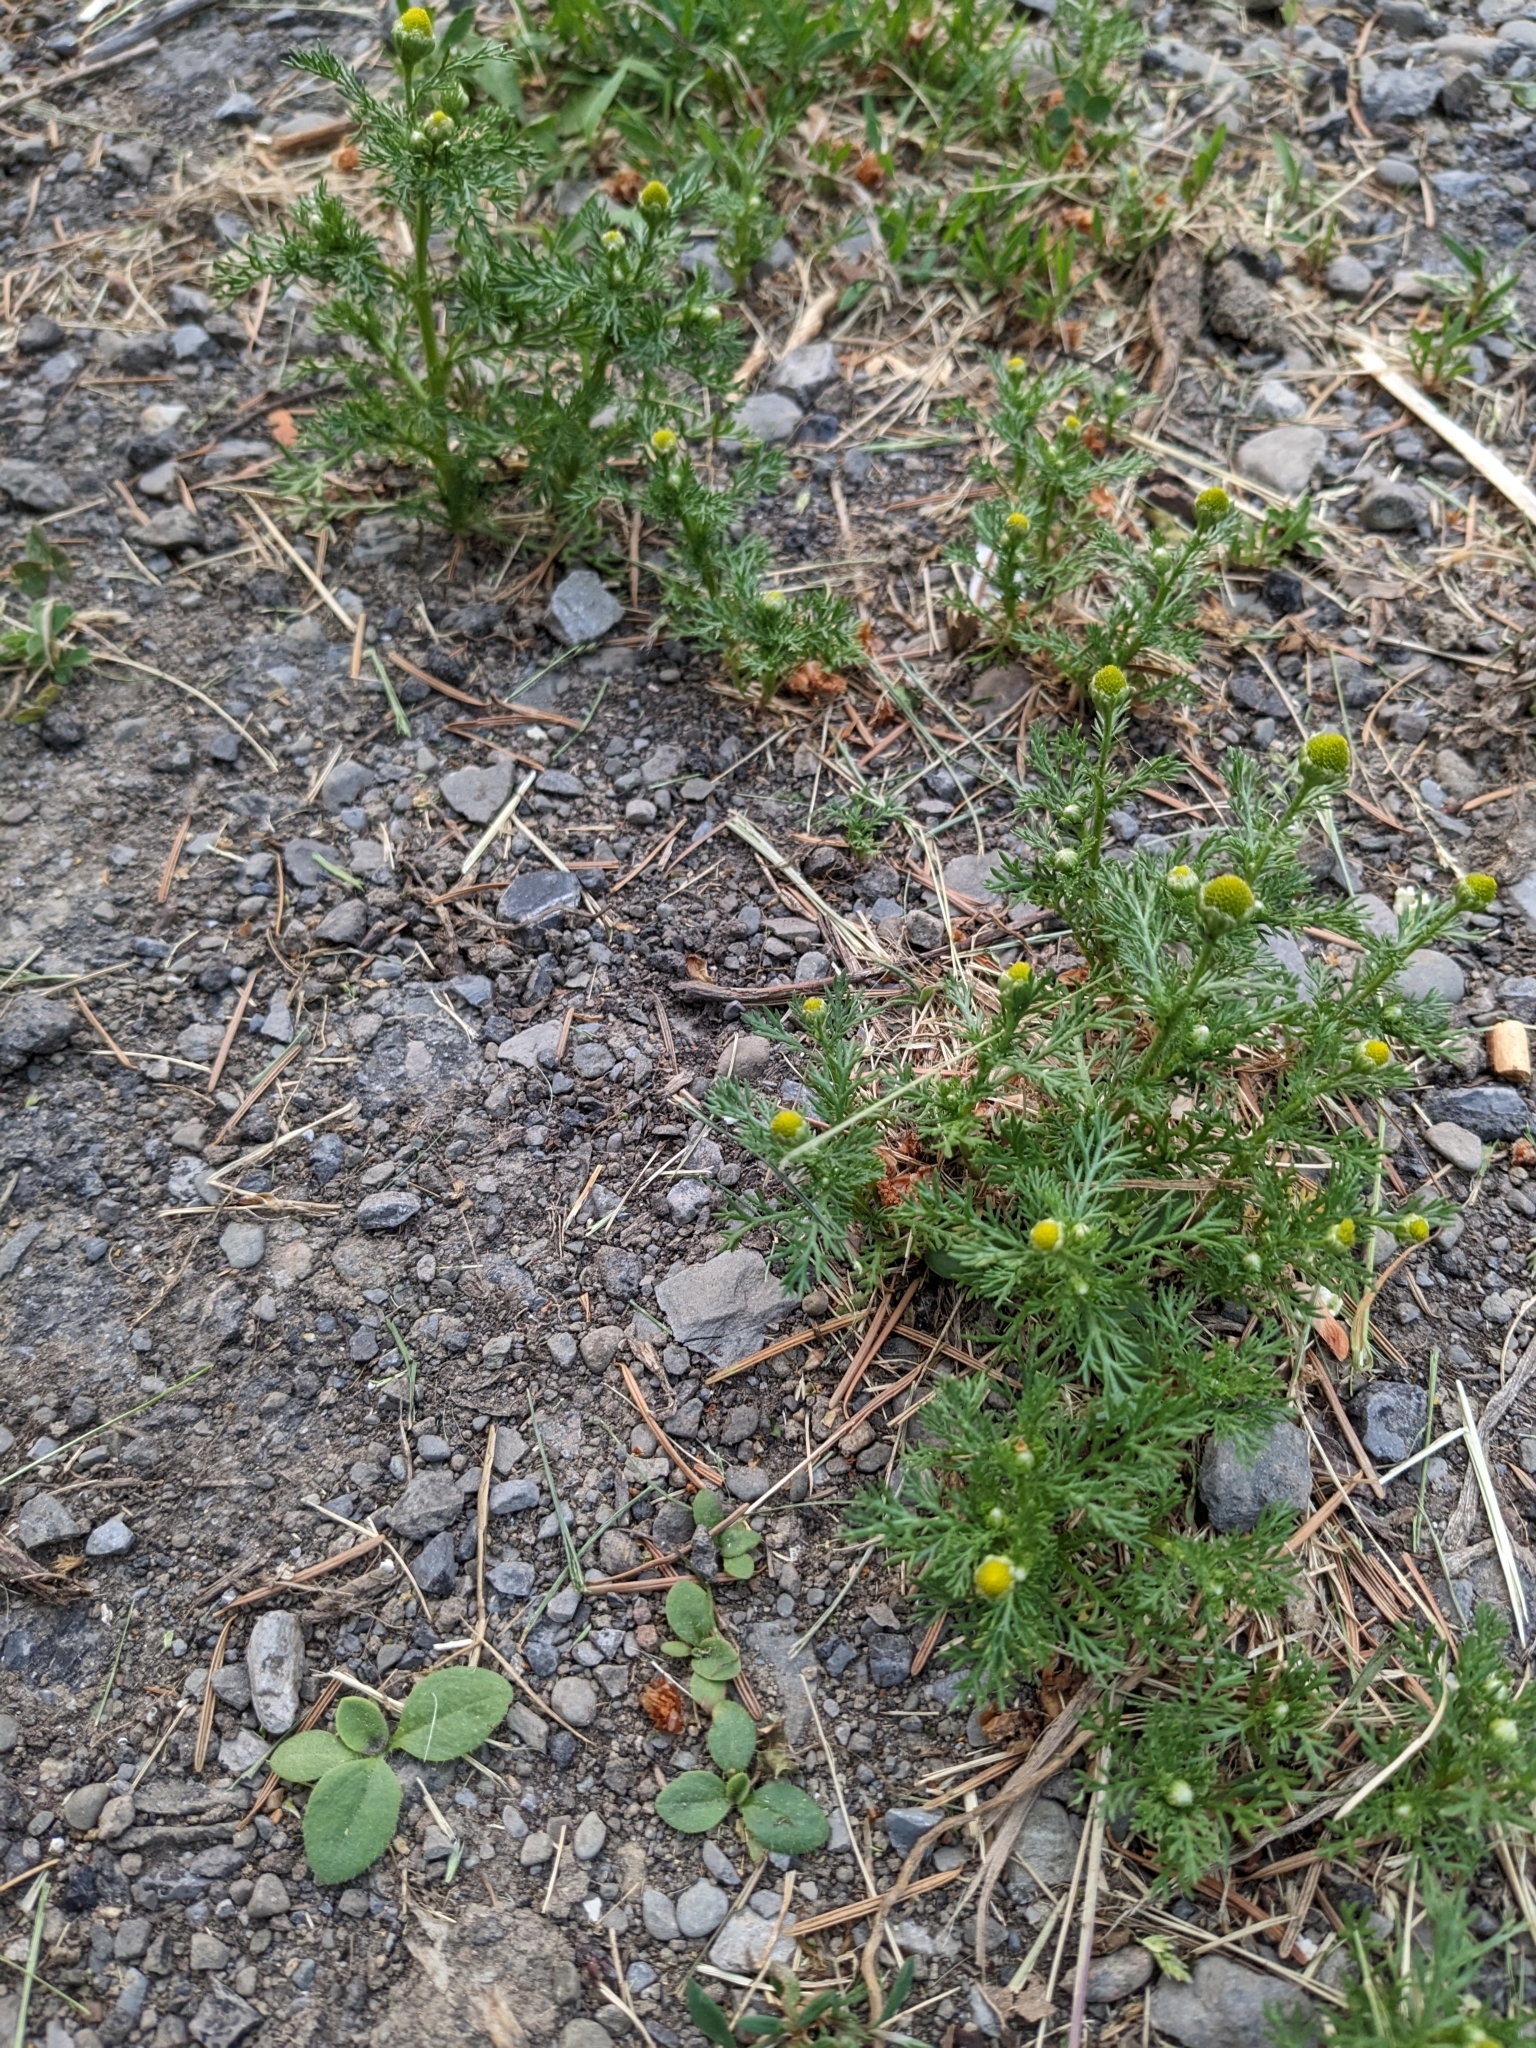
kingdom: Plantae
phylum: Tracheophyta
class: Magnoliopsida
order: Asterales
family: Asteraceae
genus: Matricaria
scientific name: Matricaria discoidea
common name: Disc mayweed
